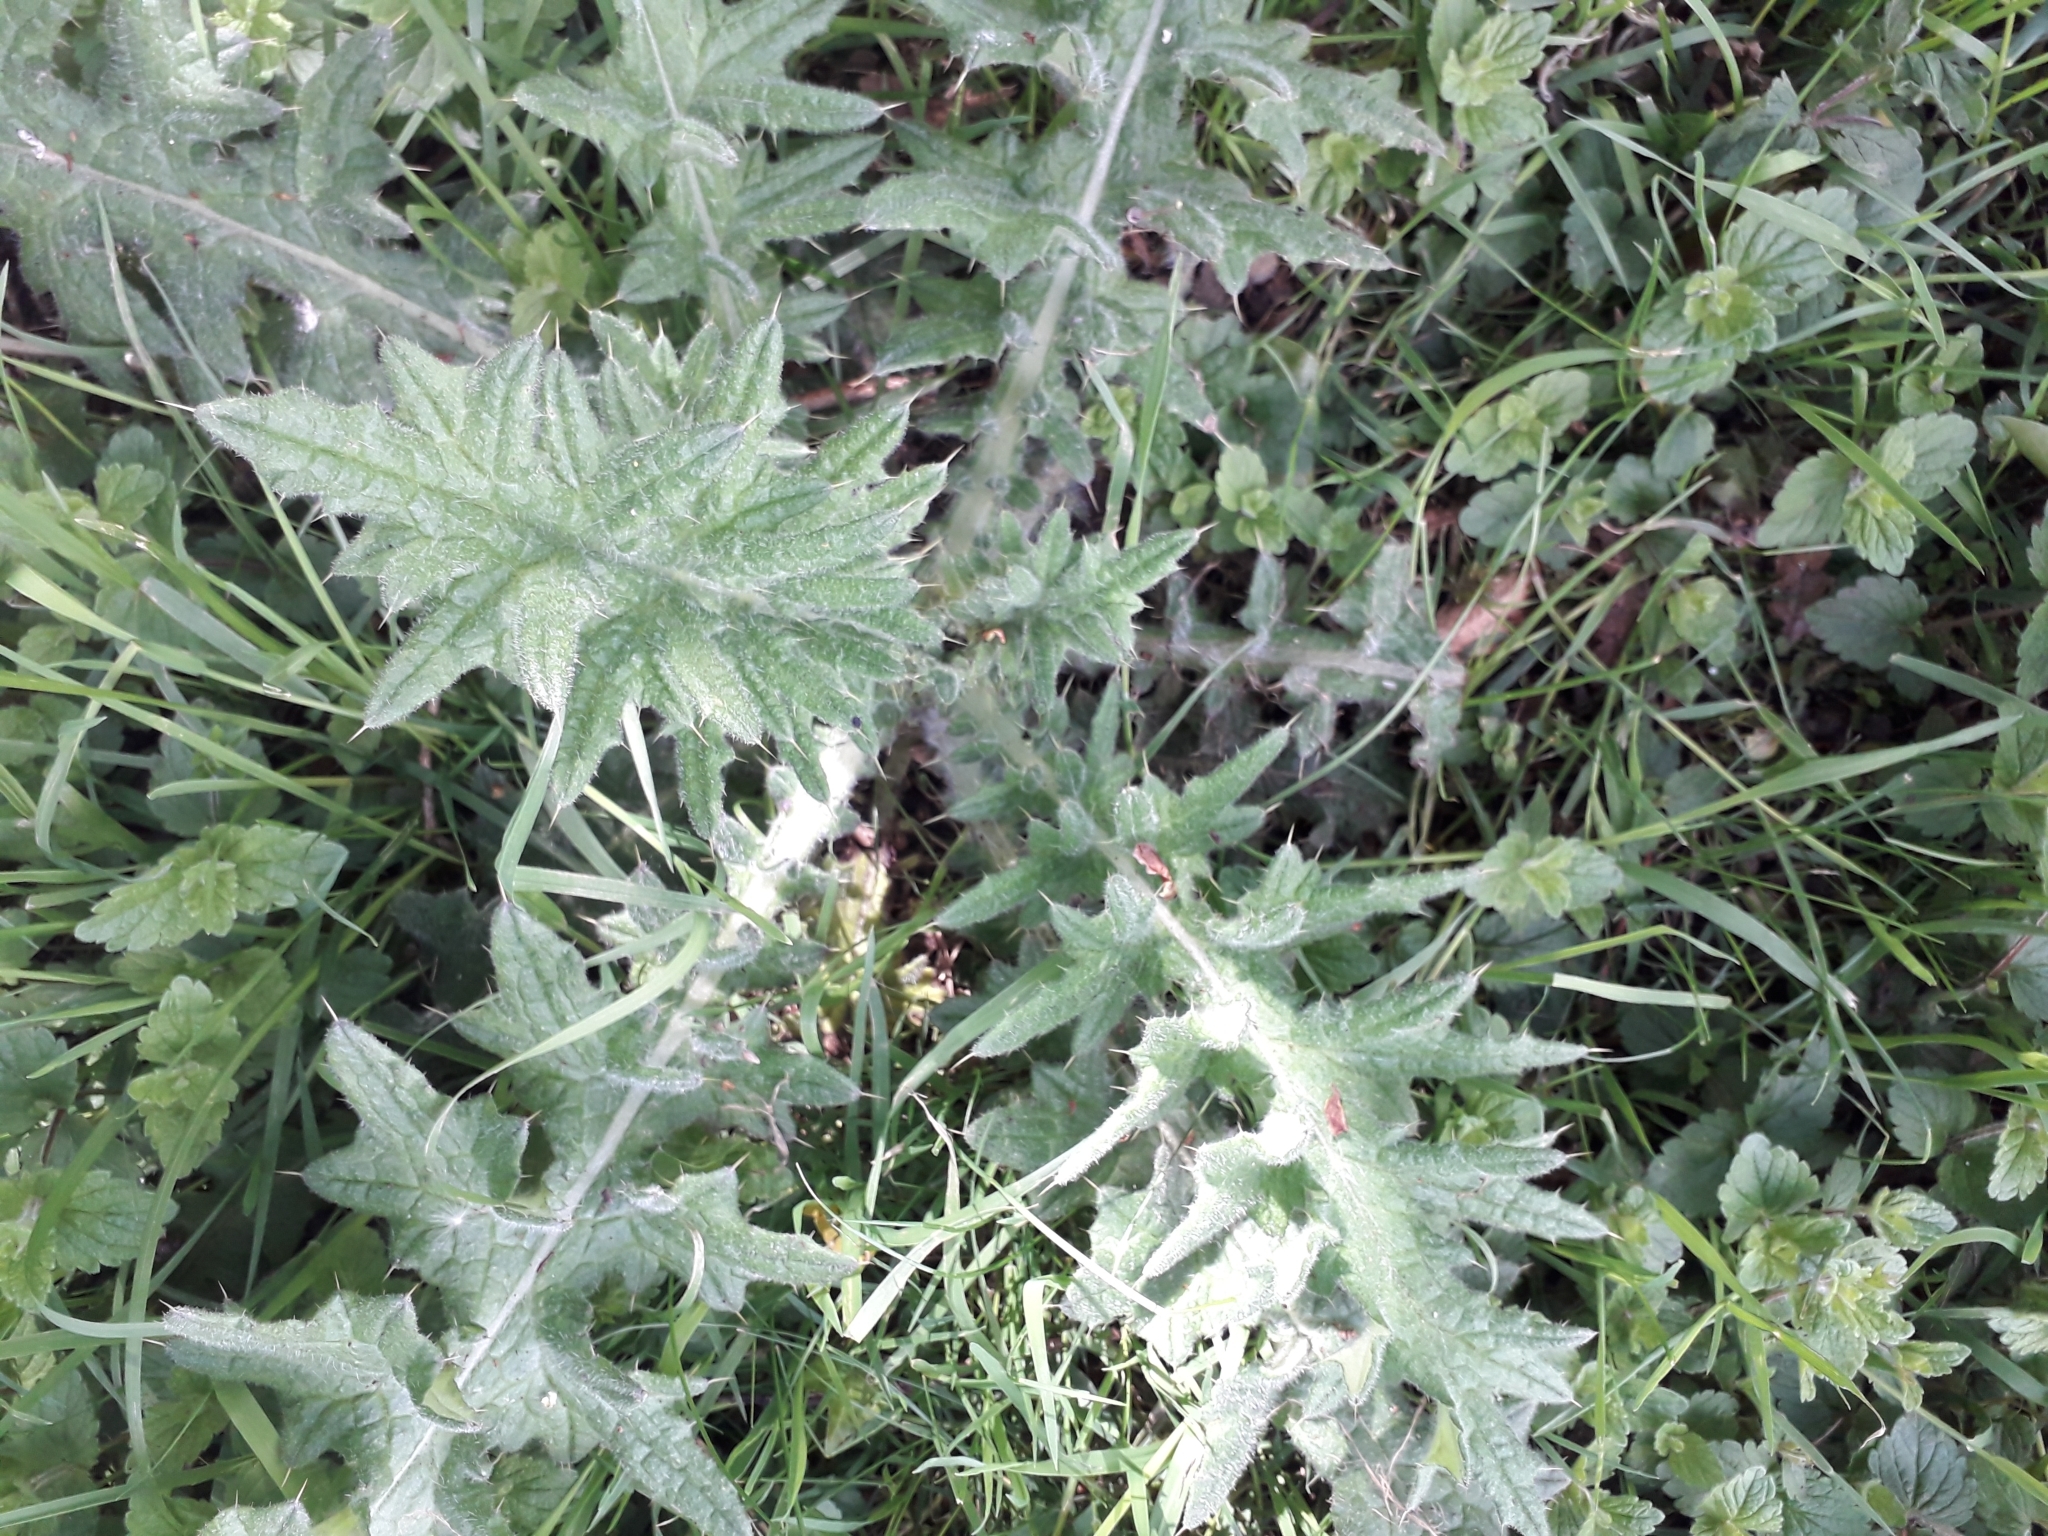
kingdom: Plantae
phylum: Tracheophyta
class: Magnoliopsida
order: Asterales
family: Asteraceae
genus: Cirsium
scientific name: Cirsium vulgare
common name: Bull thistle
